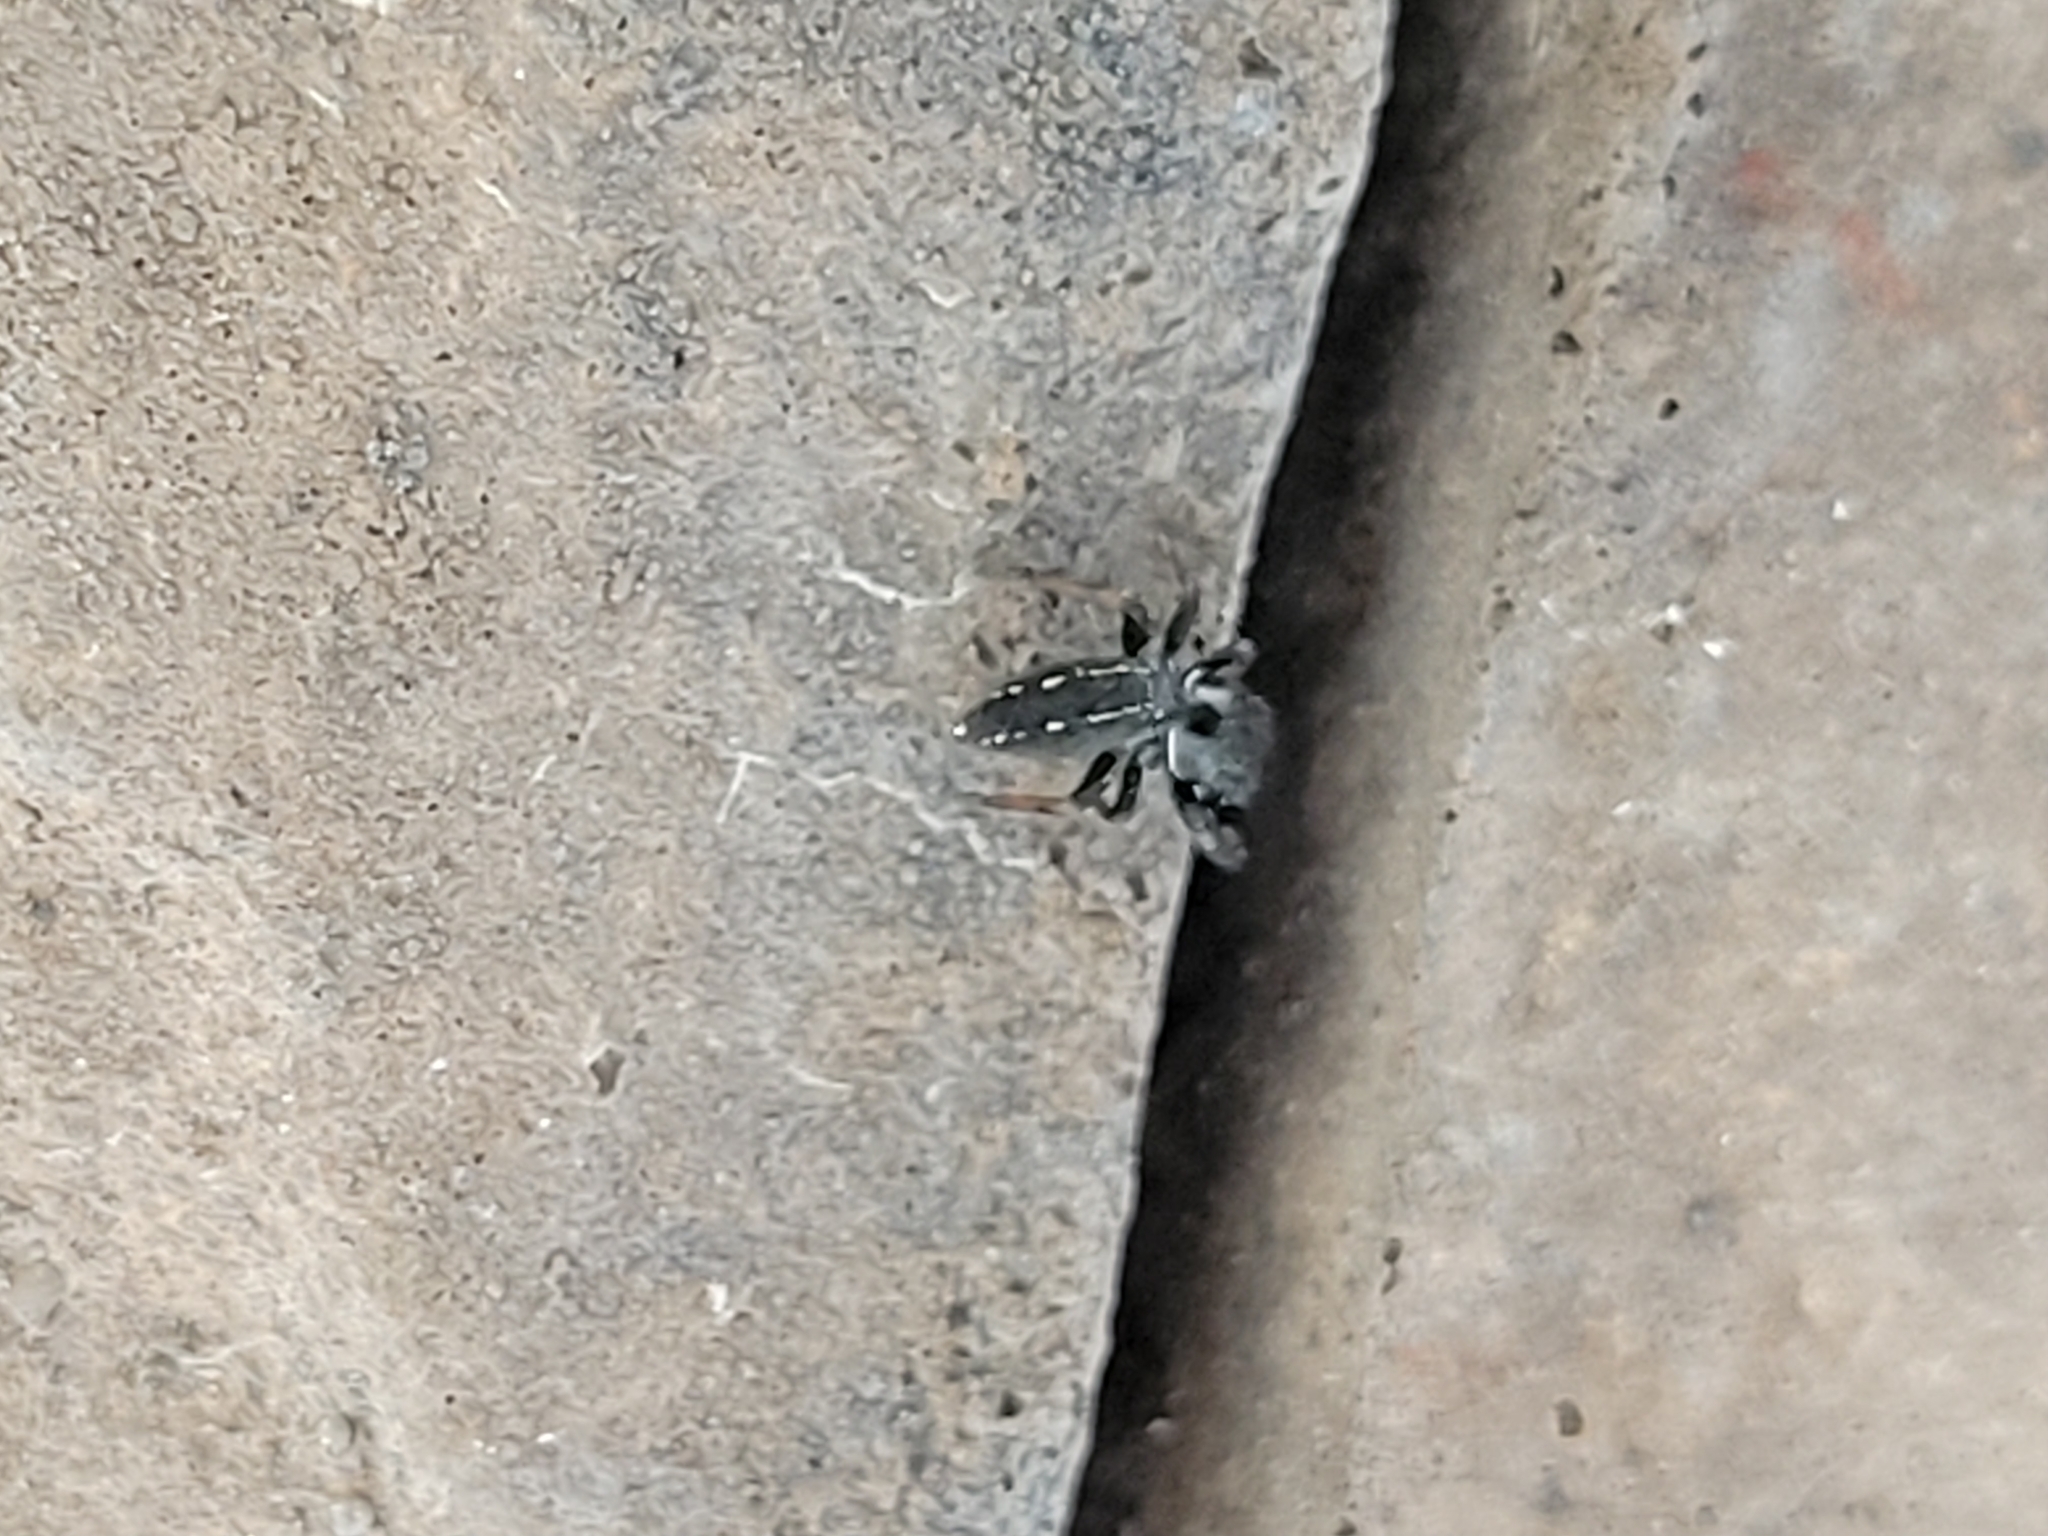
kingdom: Animalia
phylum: Arthropoda
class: Arachnida
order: Araneae
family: Salticidae
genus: Metacyrba
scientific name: Metacyrba taeniola
